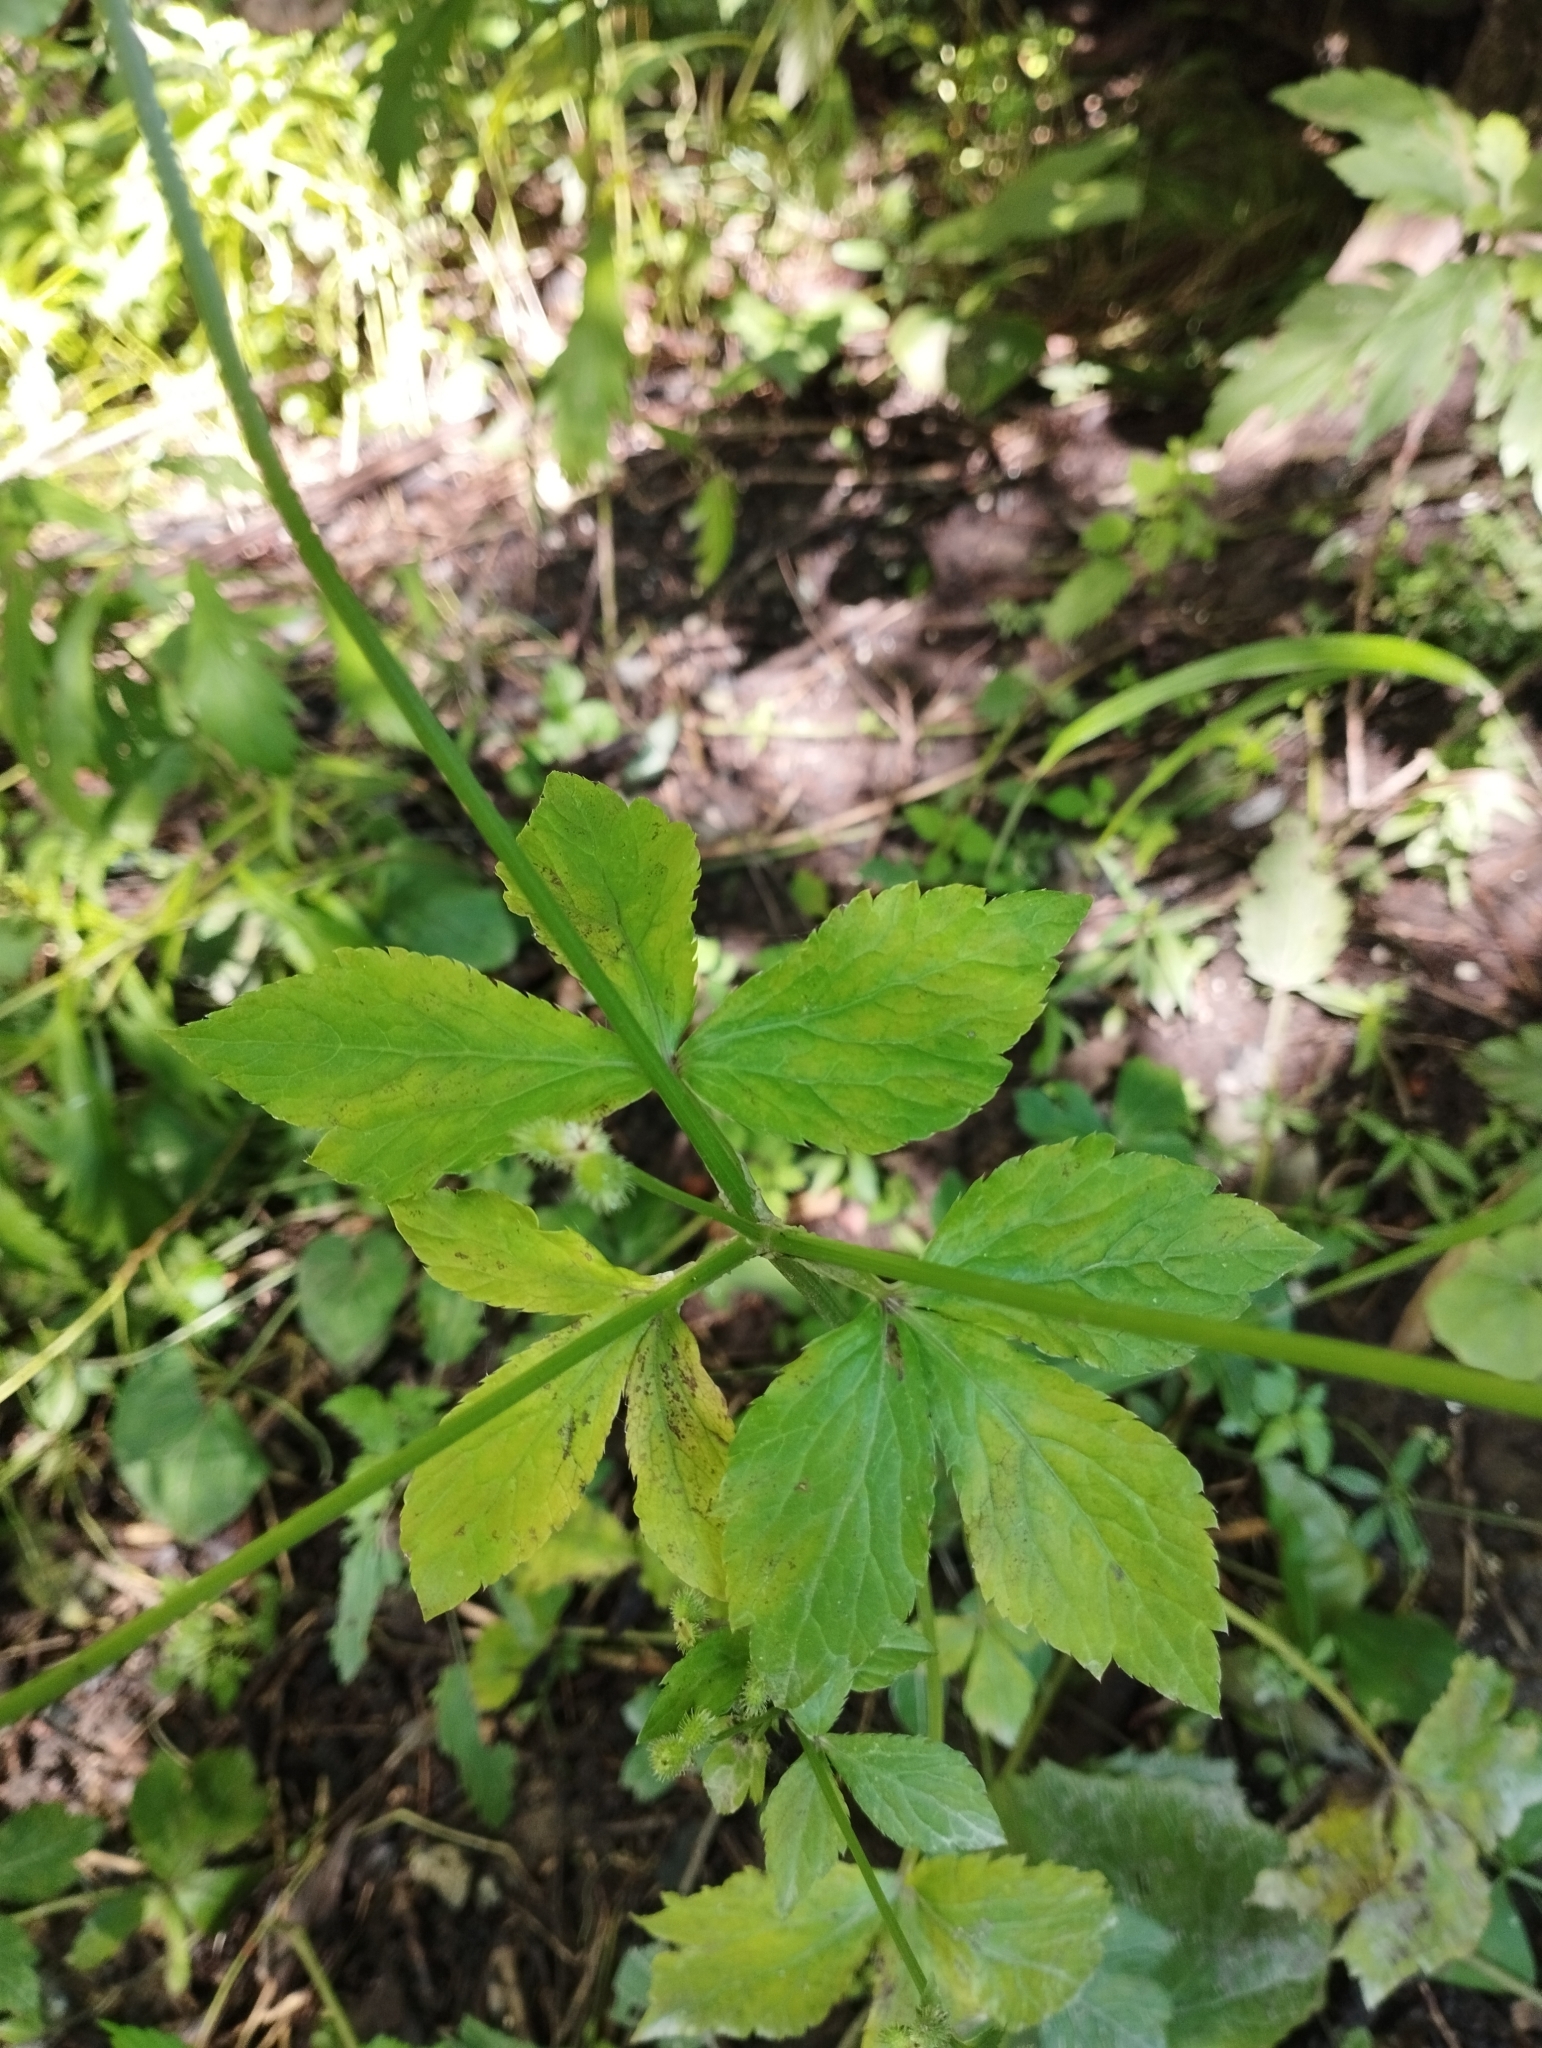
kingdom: Plantae
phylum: Tracheophyta
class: Magnoliopsida
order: Apiales
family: Apiaceae
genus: Sanicula
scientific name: Sanicula chinensis
